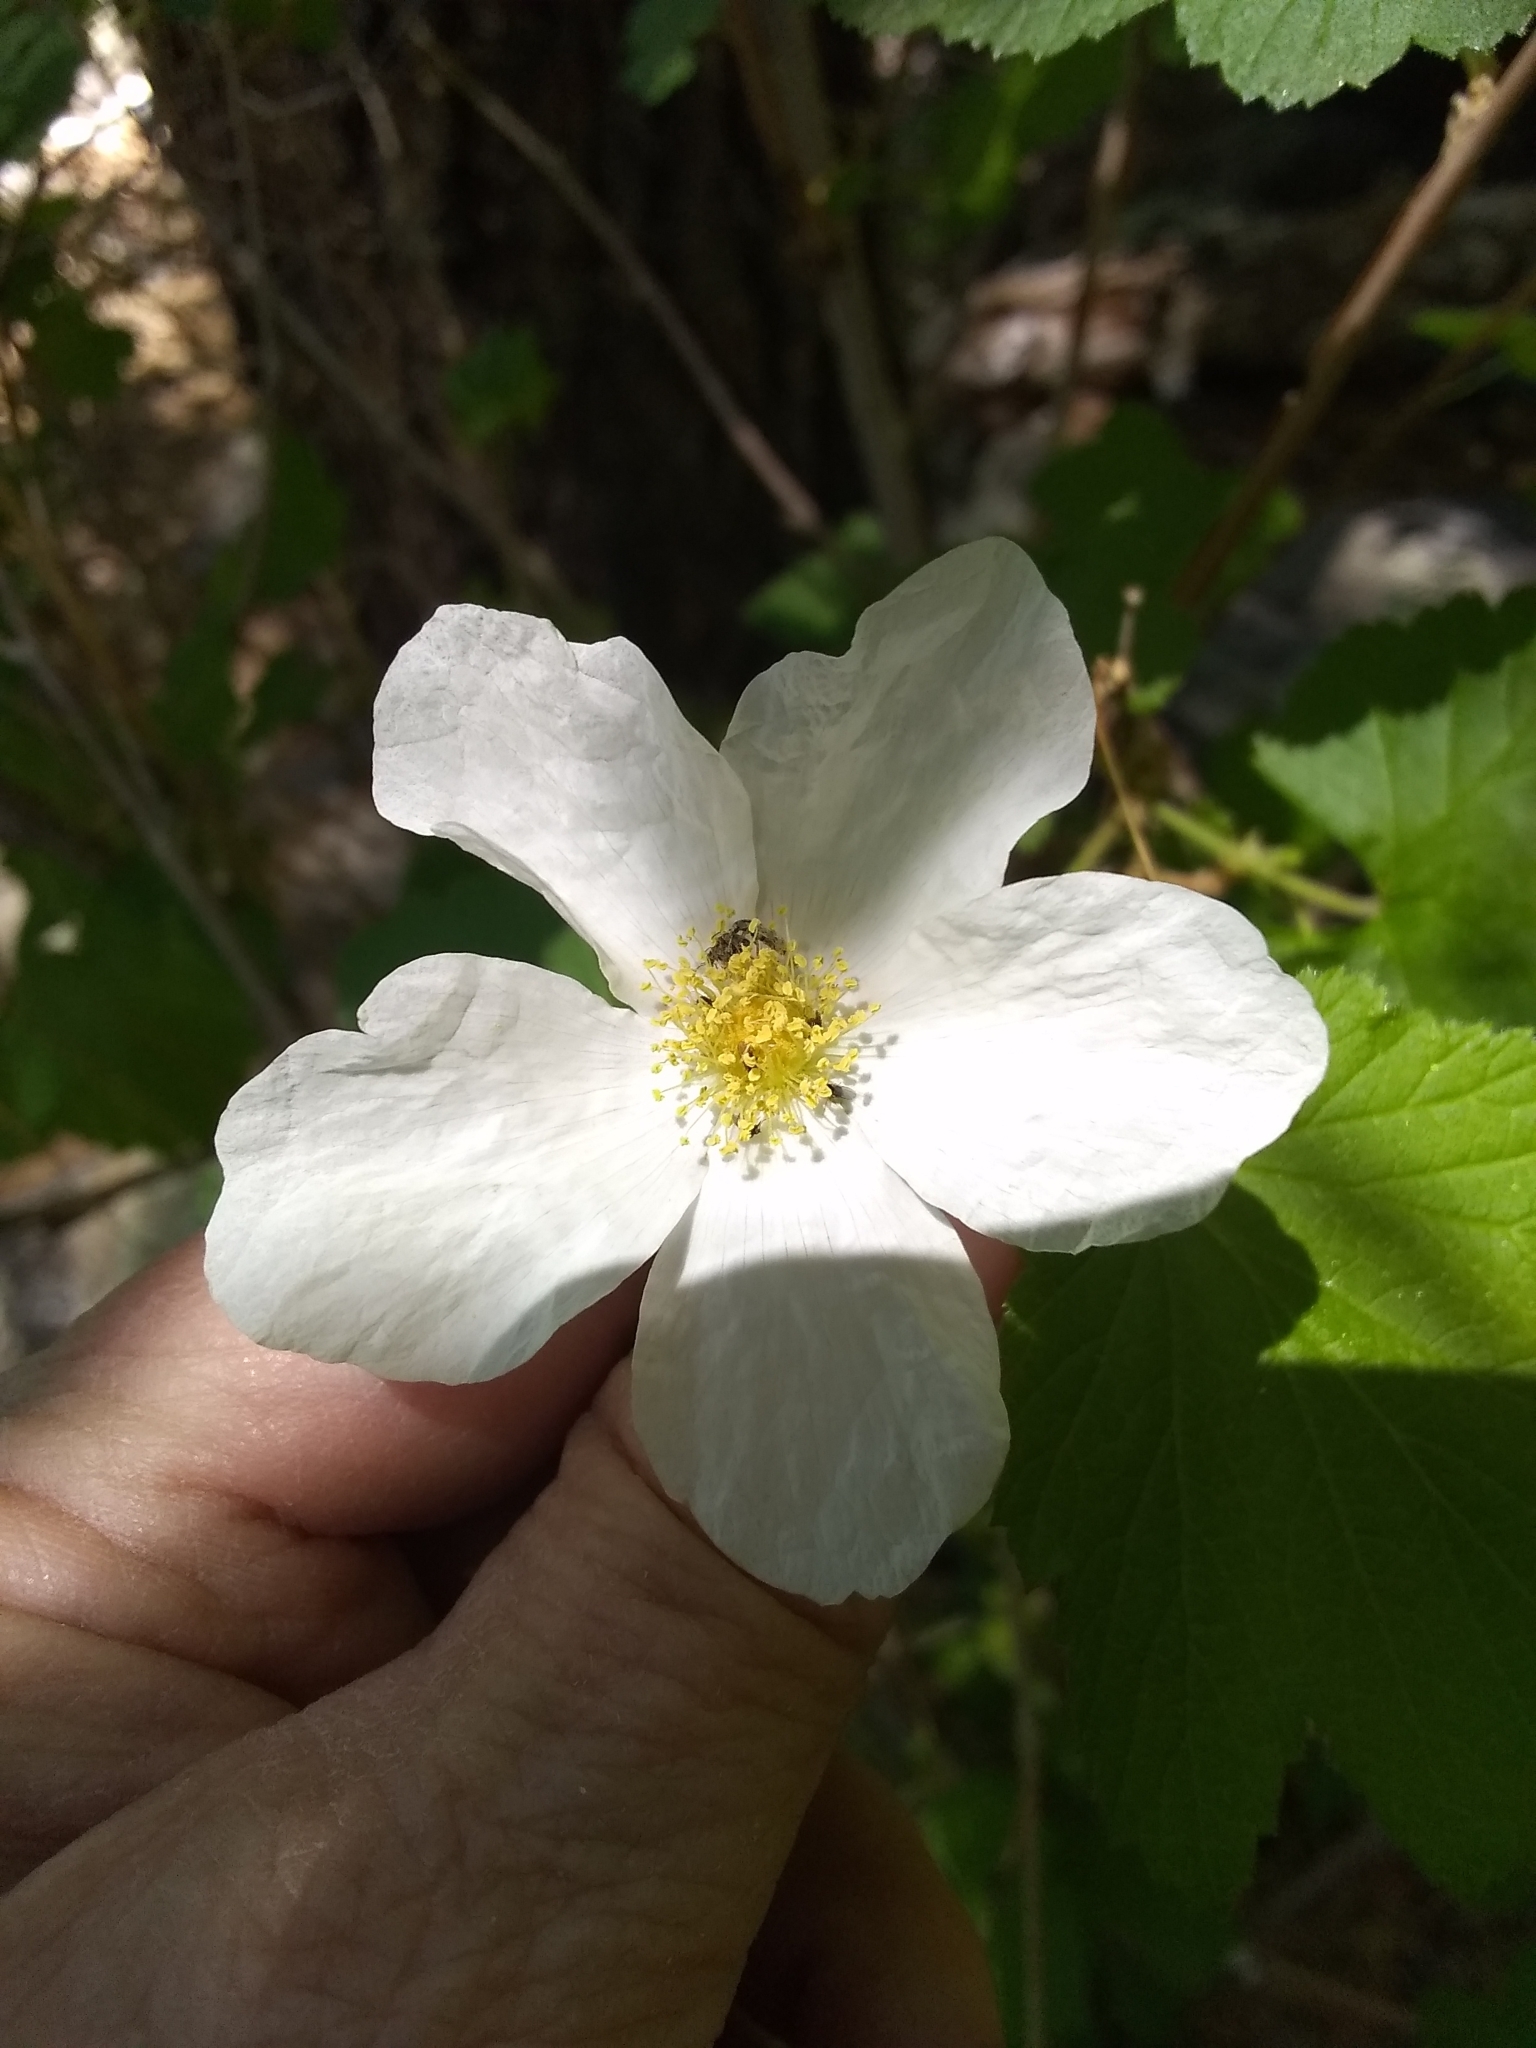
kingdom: Plantae
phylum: Tracheophyta
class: Magnoliopsida
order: Rosales
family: Rosaceae
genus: Rubus
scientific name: Rubus neomexicanus
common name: New mexico raspberry
